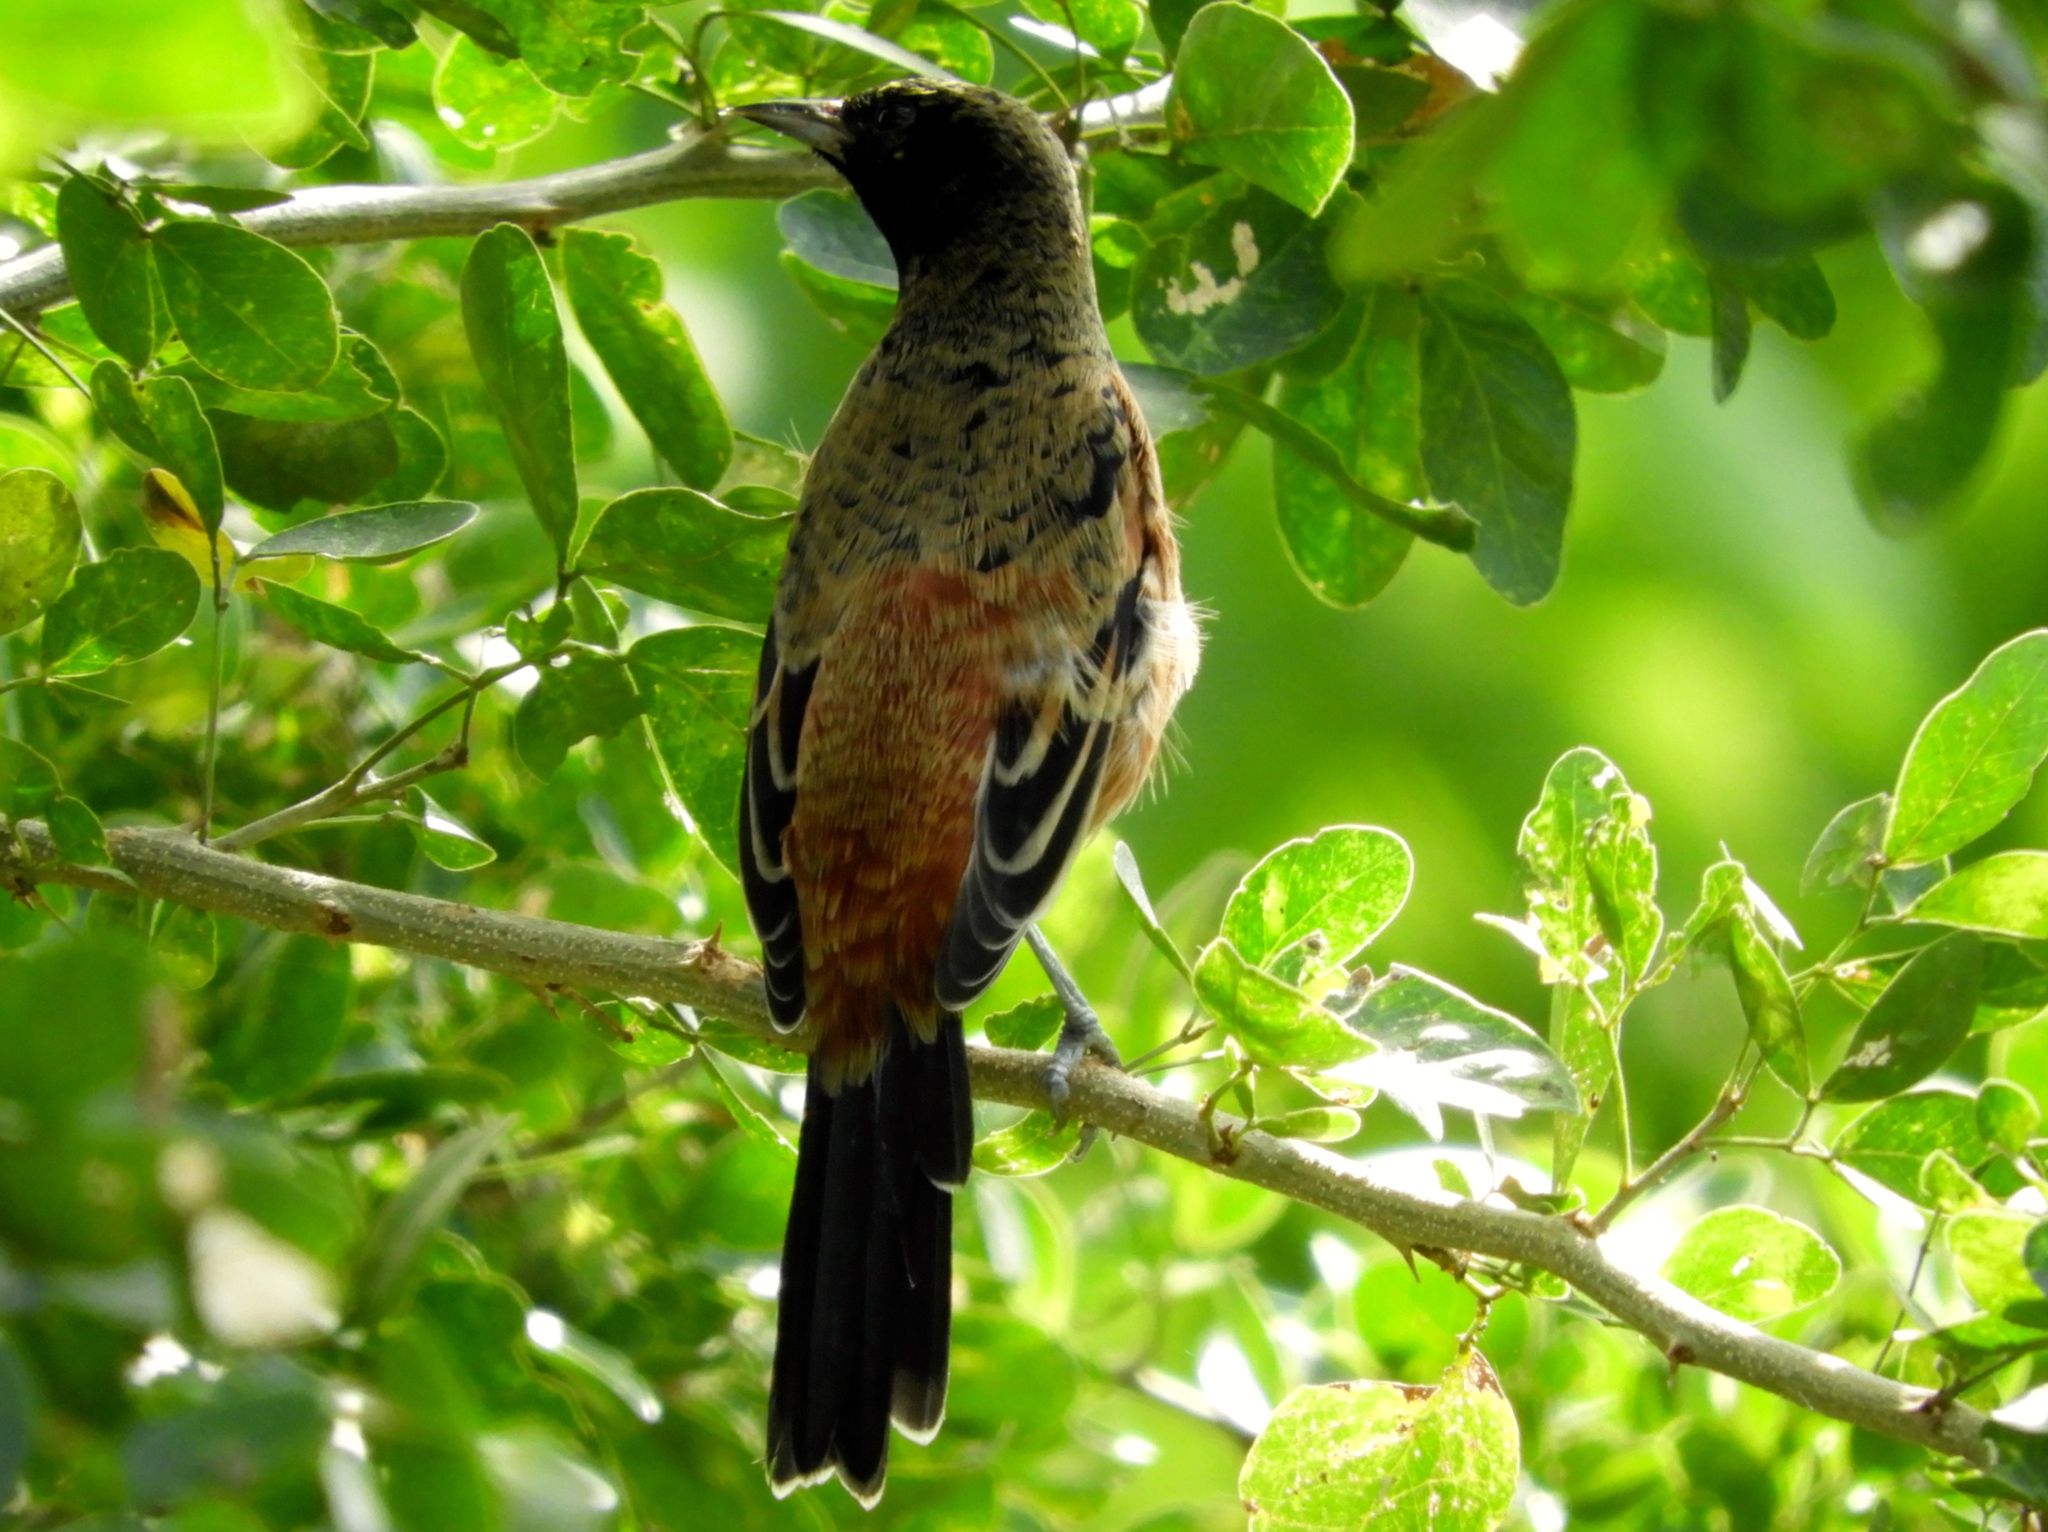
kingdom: Animalia
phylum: Chordata
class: Aves
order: Passeriformes
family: Icteridae
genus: Icterus
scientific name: Icterus spurius
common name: Orchard oriole
